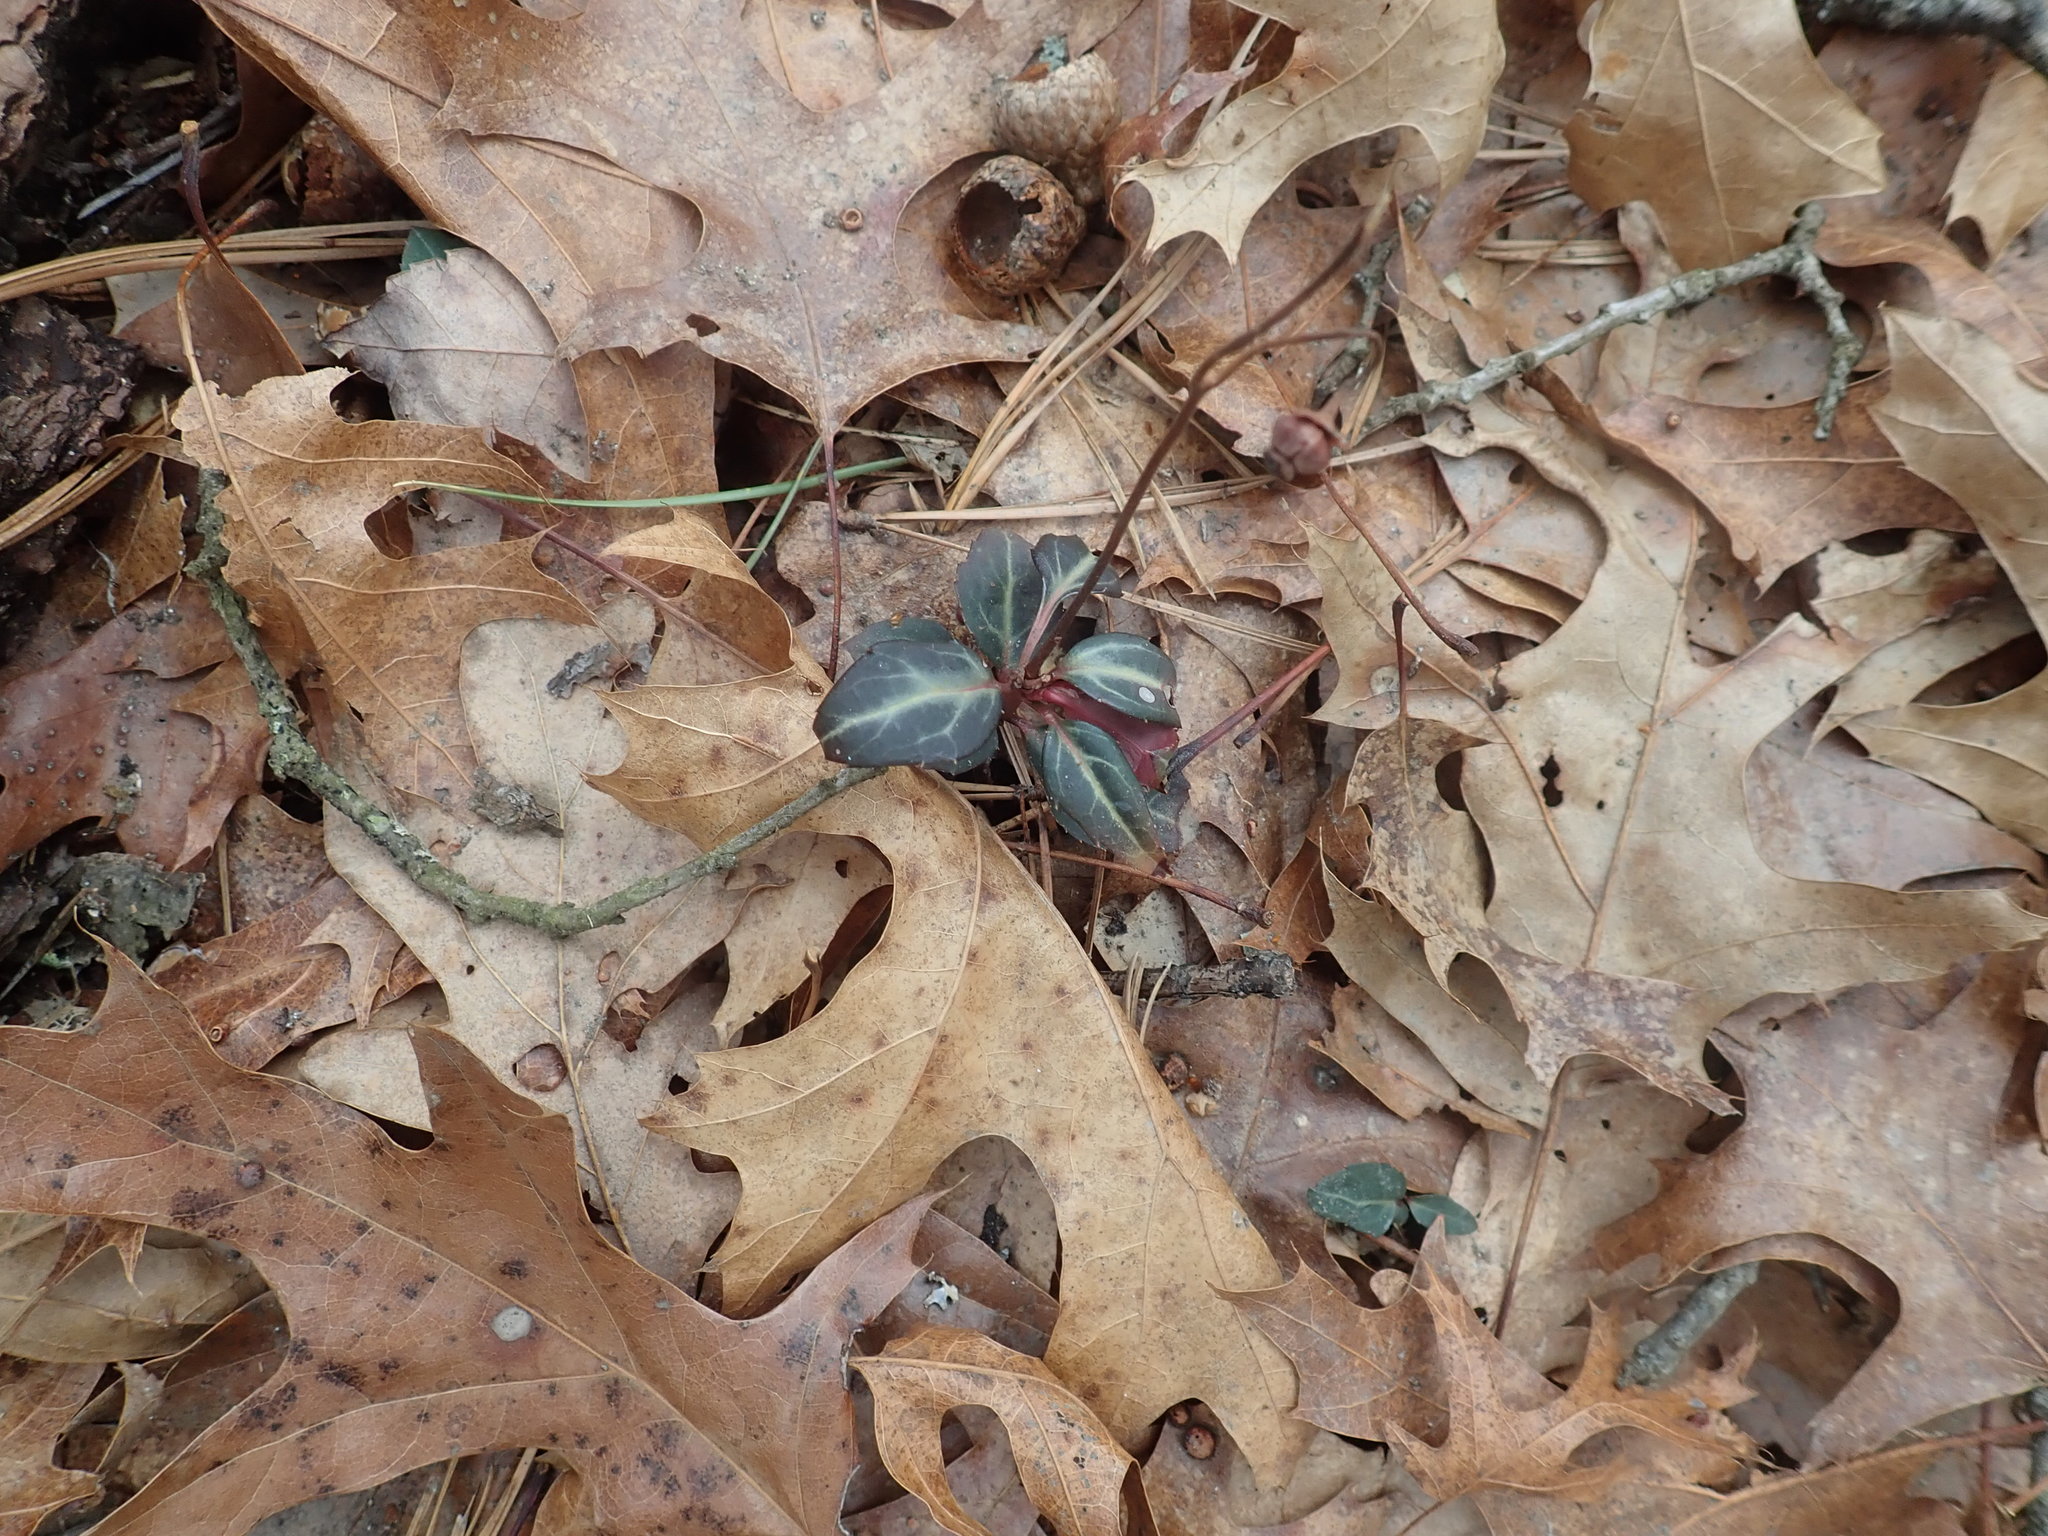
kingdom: Plantae
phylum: Tracheophyta
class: Magnoliopsida
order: Ericales
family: Ericaceae
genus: Chimaphila
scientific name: Chimaphila maculata
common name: Spotted pipsissewa
